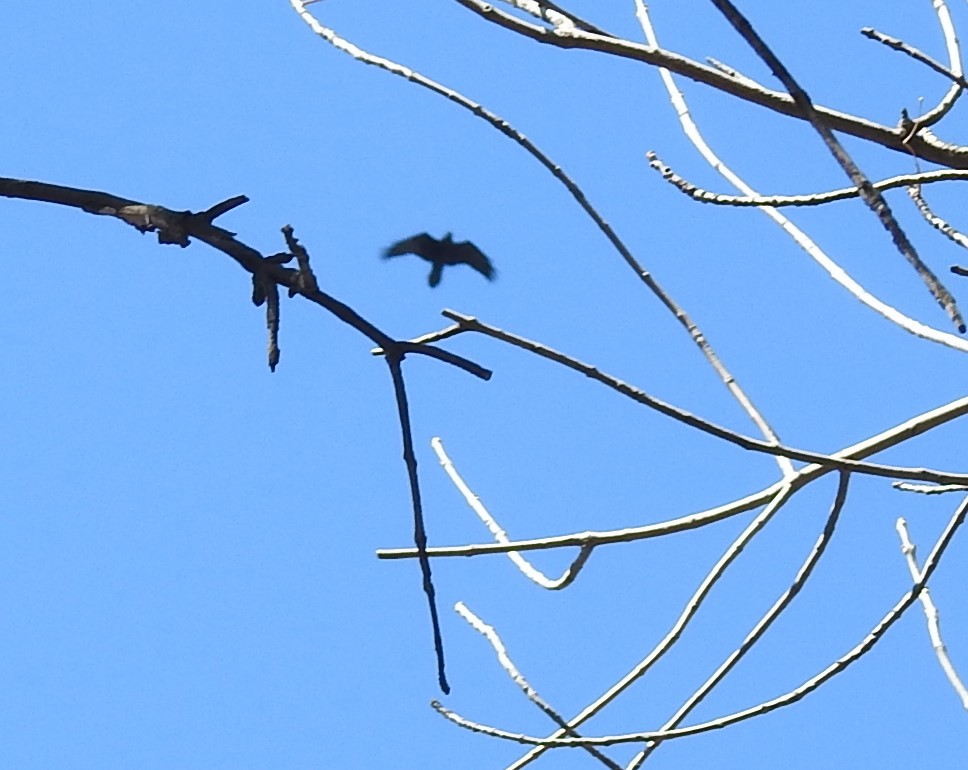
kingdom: Animalia
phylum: Chordata
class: Aves
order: Passeriformes
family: Corvidae
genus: Corvus
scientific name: Corvus corax
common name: Common raven
